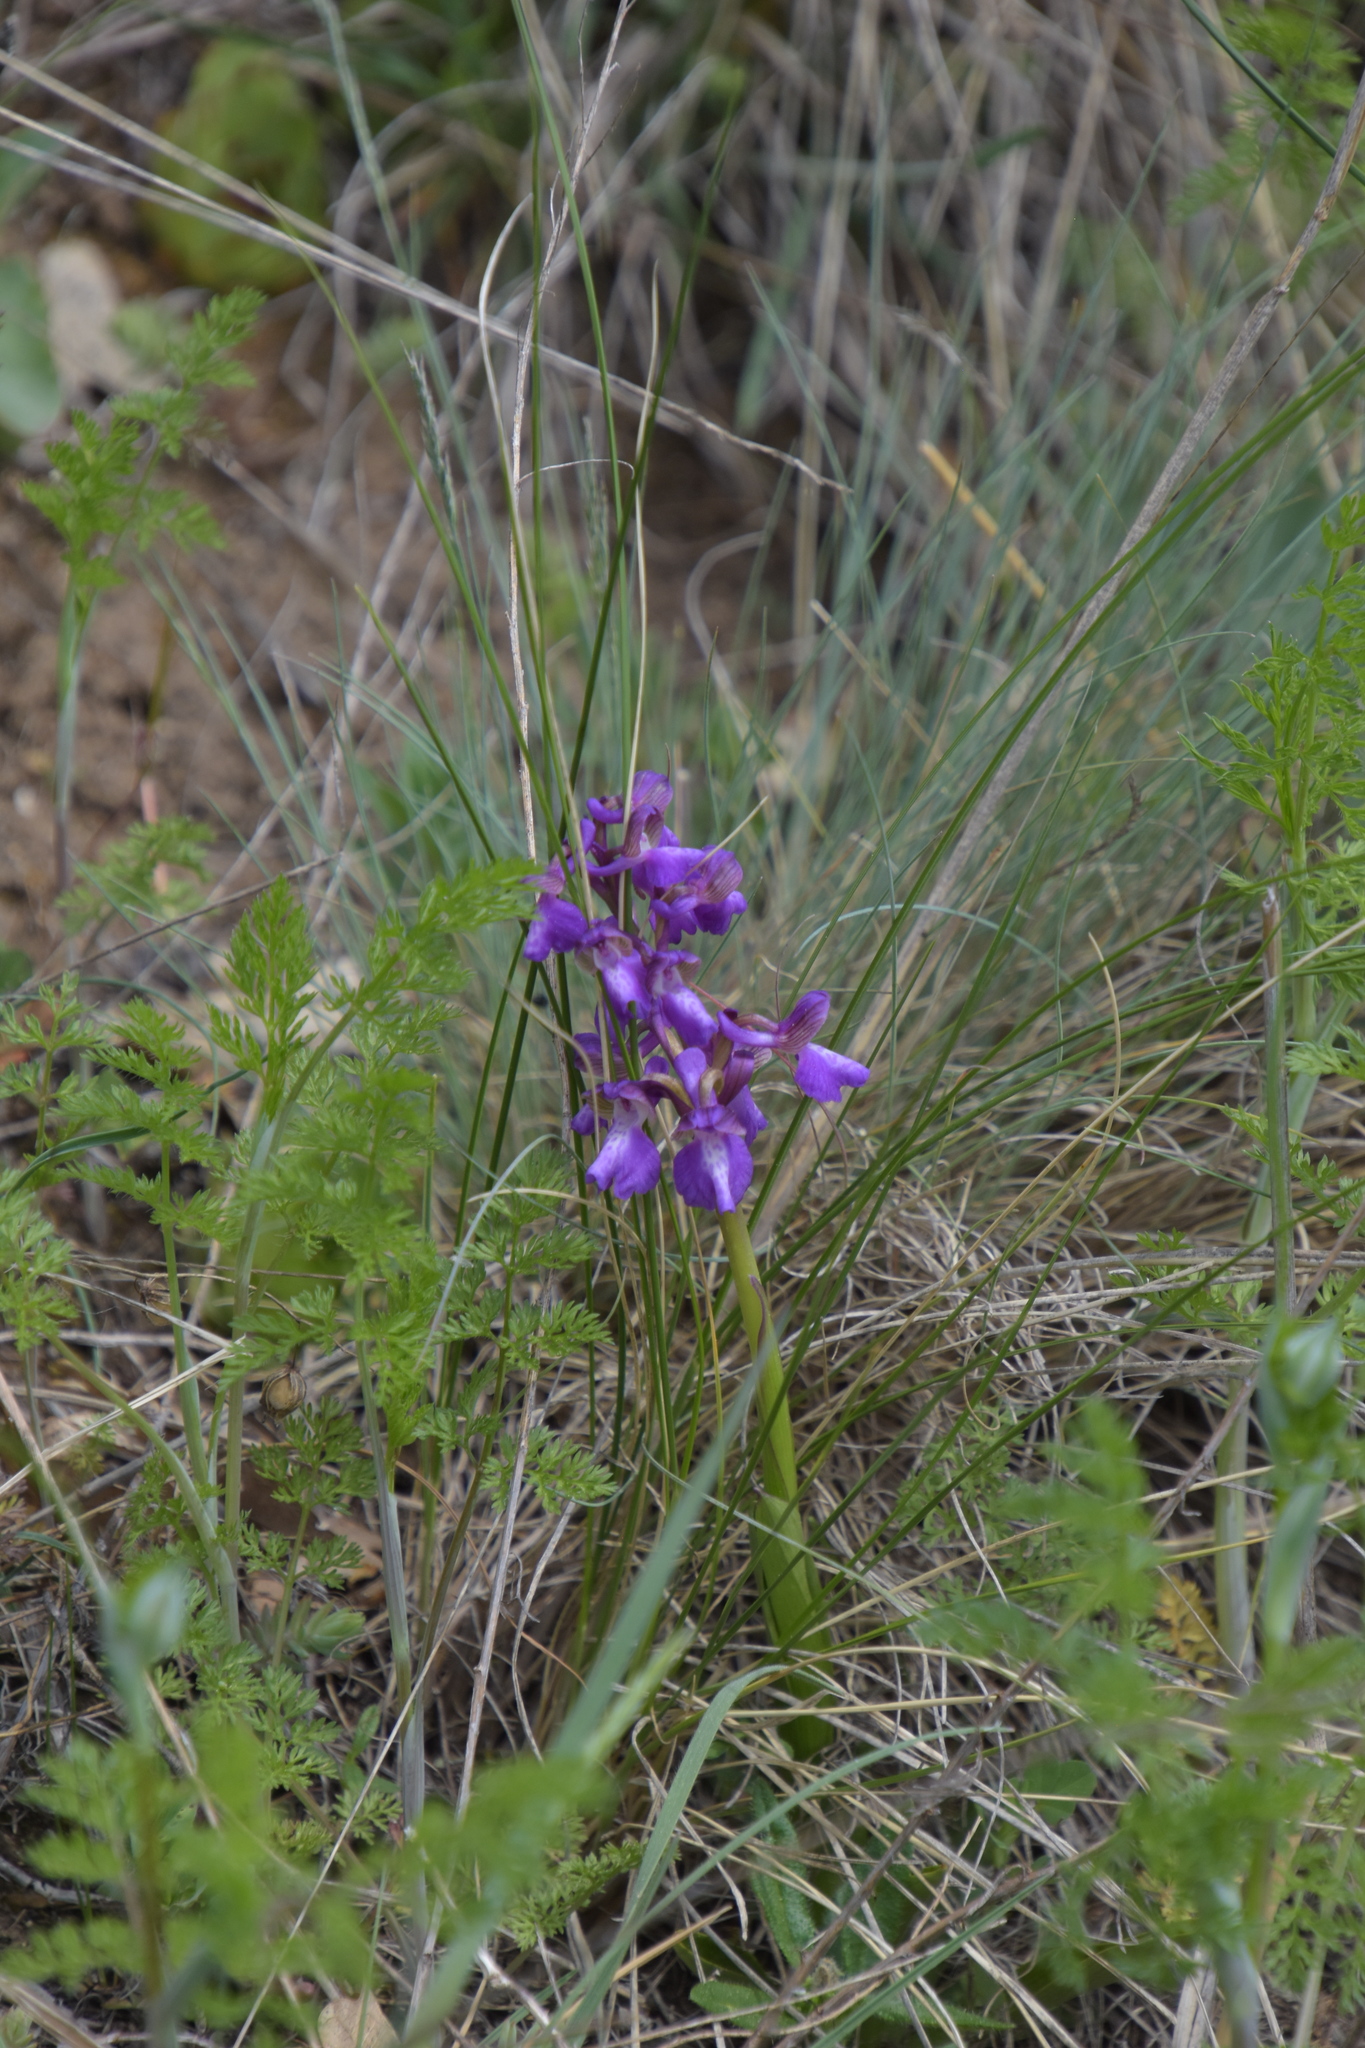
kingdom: Plantae
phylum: Tracheophyta
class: Liliopsida
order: Asparagales
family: Orchidaceae
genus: Anacamptis
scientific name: Anacamptis morio
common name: Green-winged orchid
